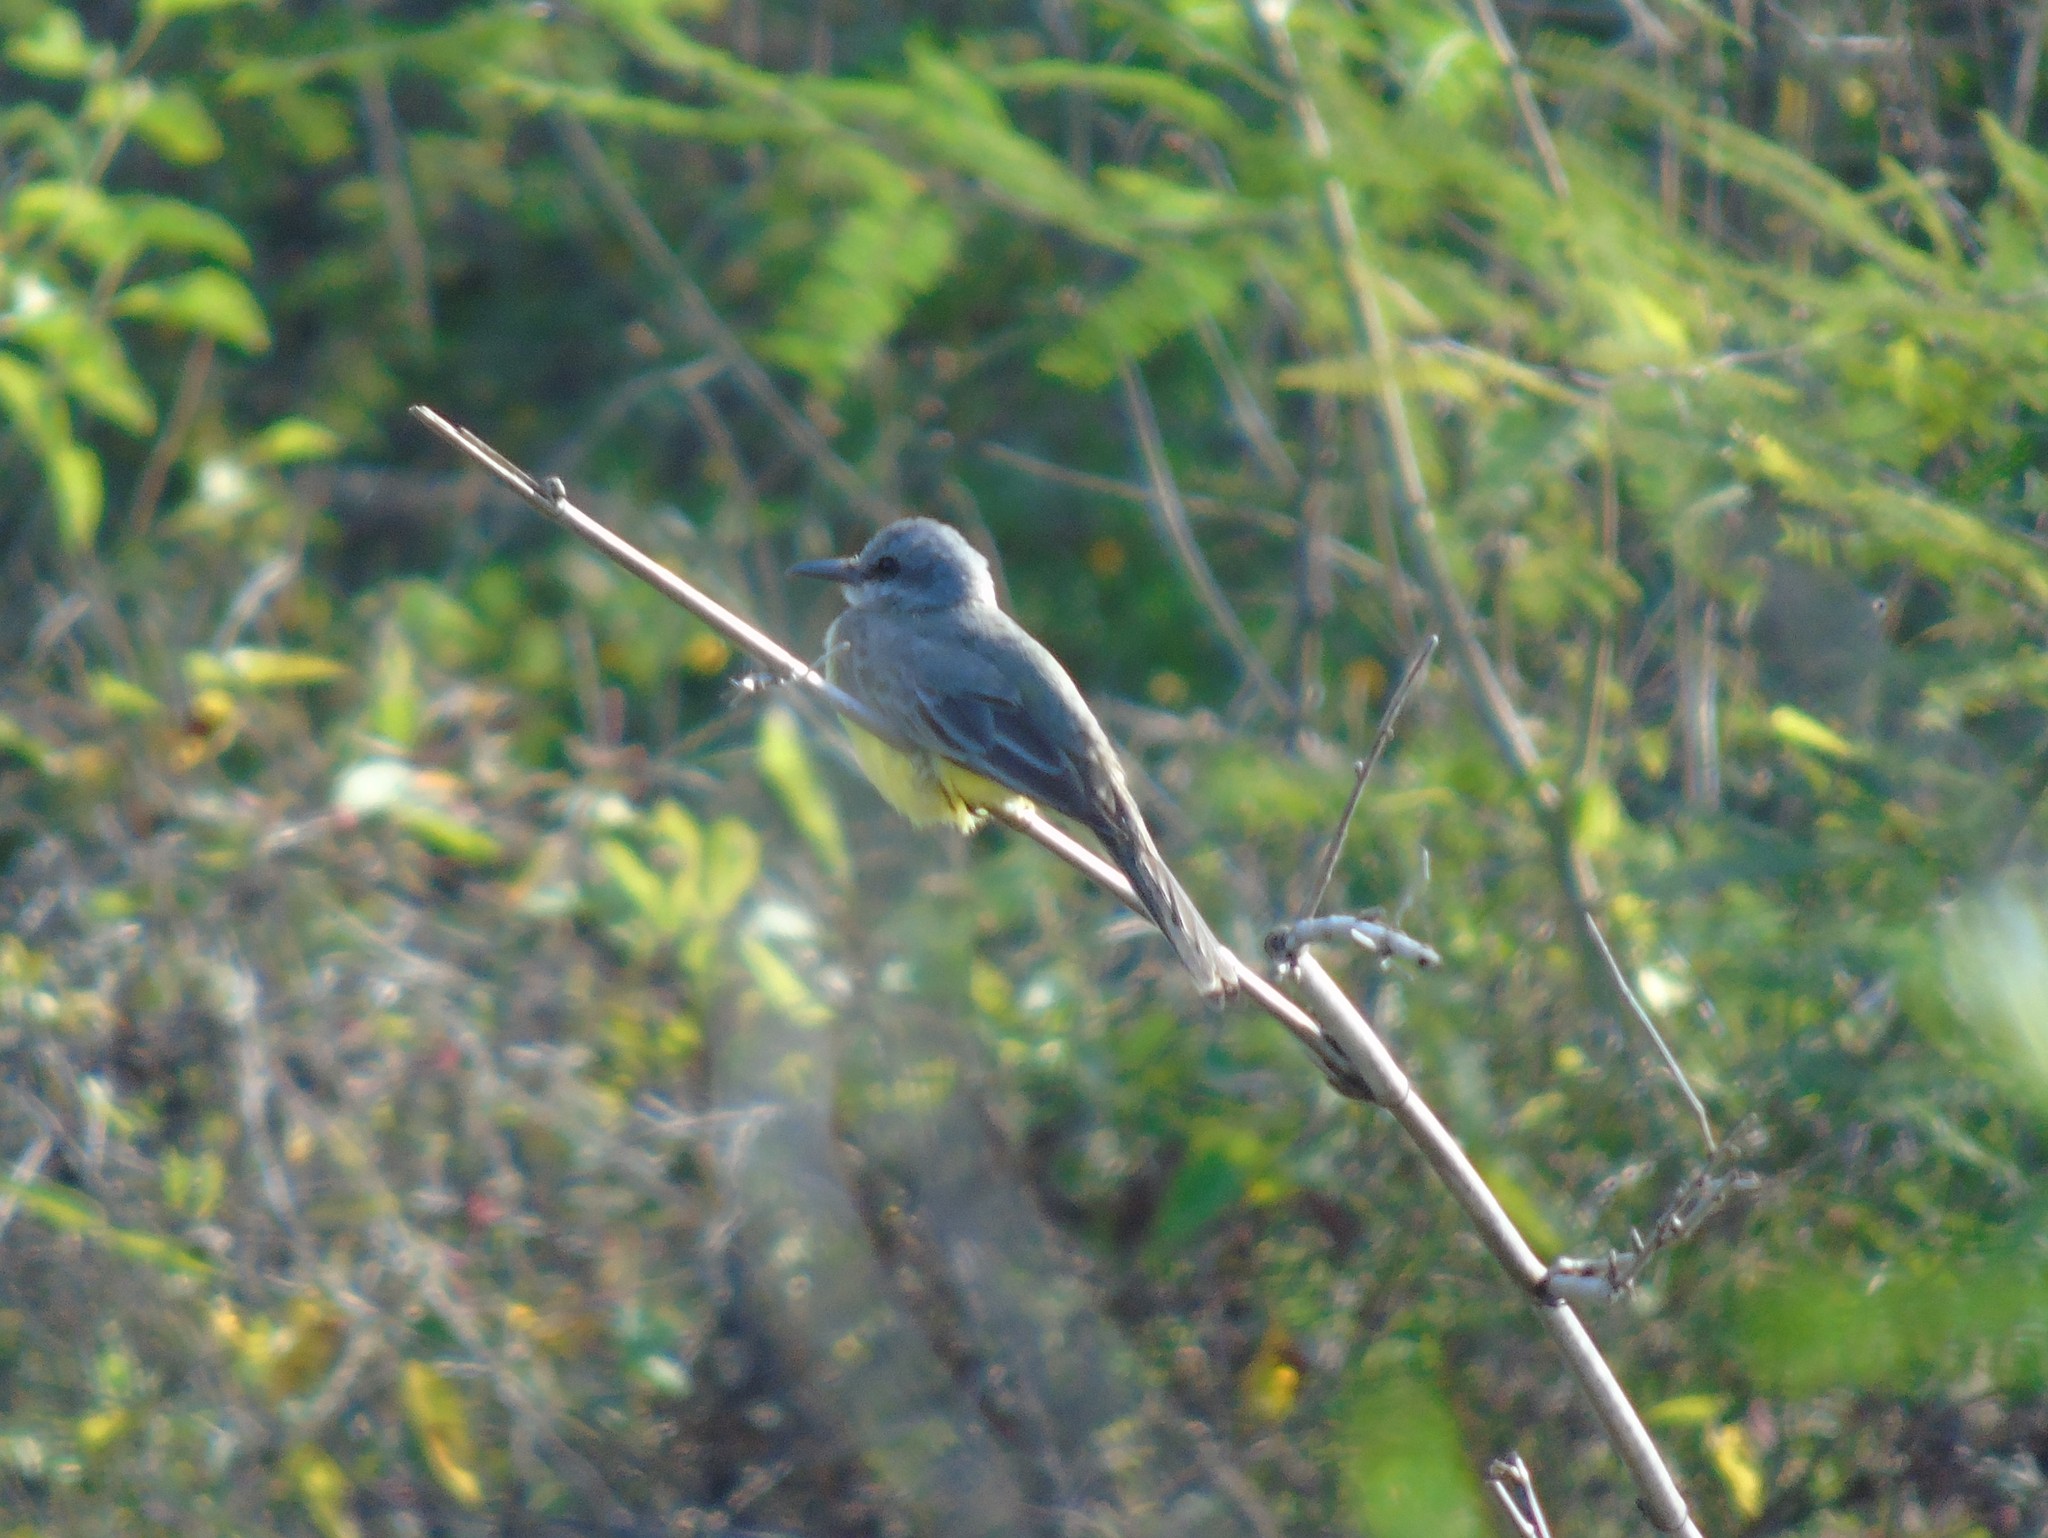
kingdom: Animalia
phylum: Chordata
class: Aves
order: Passeriformes
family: Tyrannidae
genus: Tyrannus
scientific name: Tyrannus melancholicus
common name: Tropical kingbird
